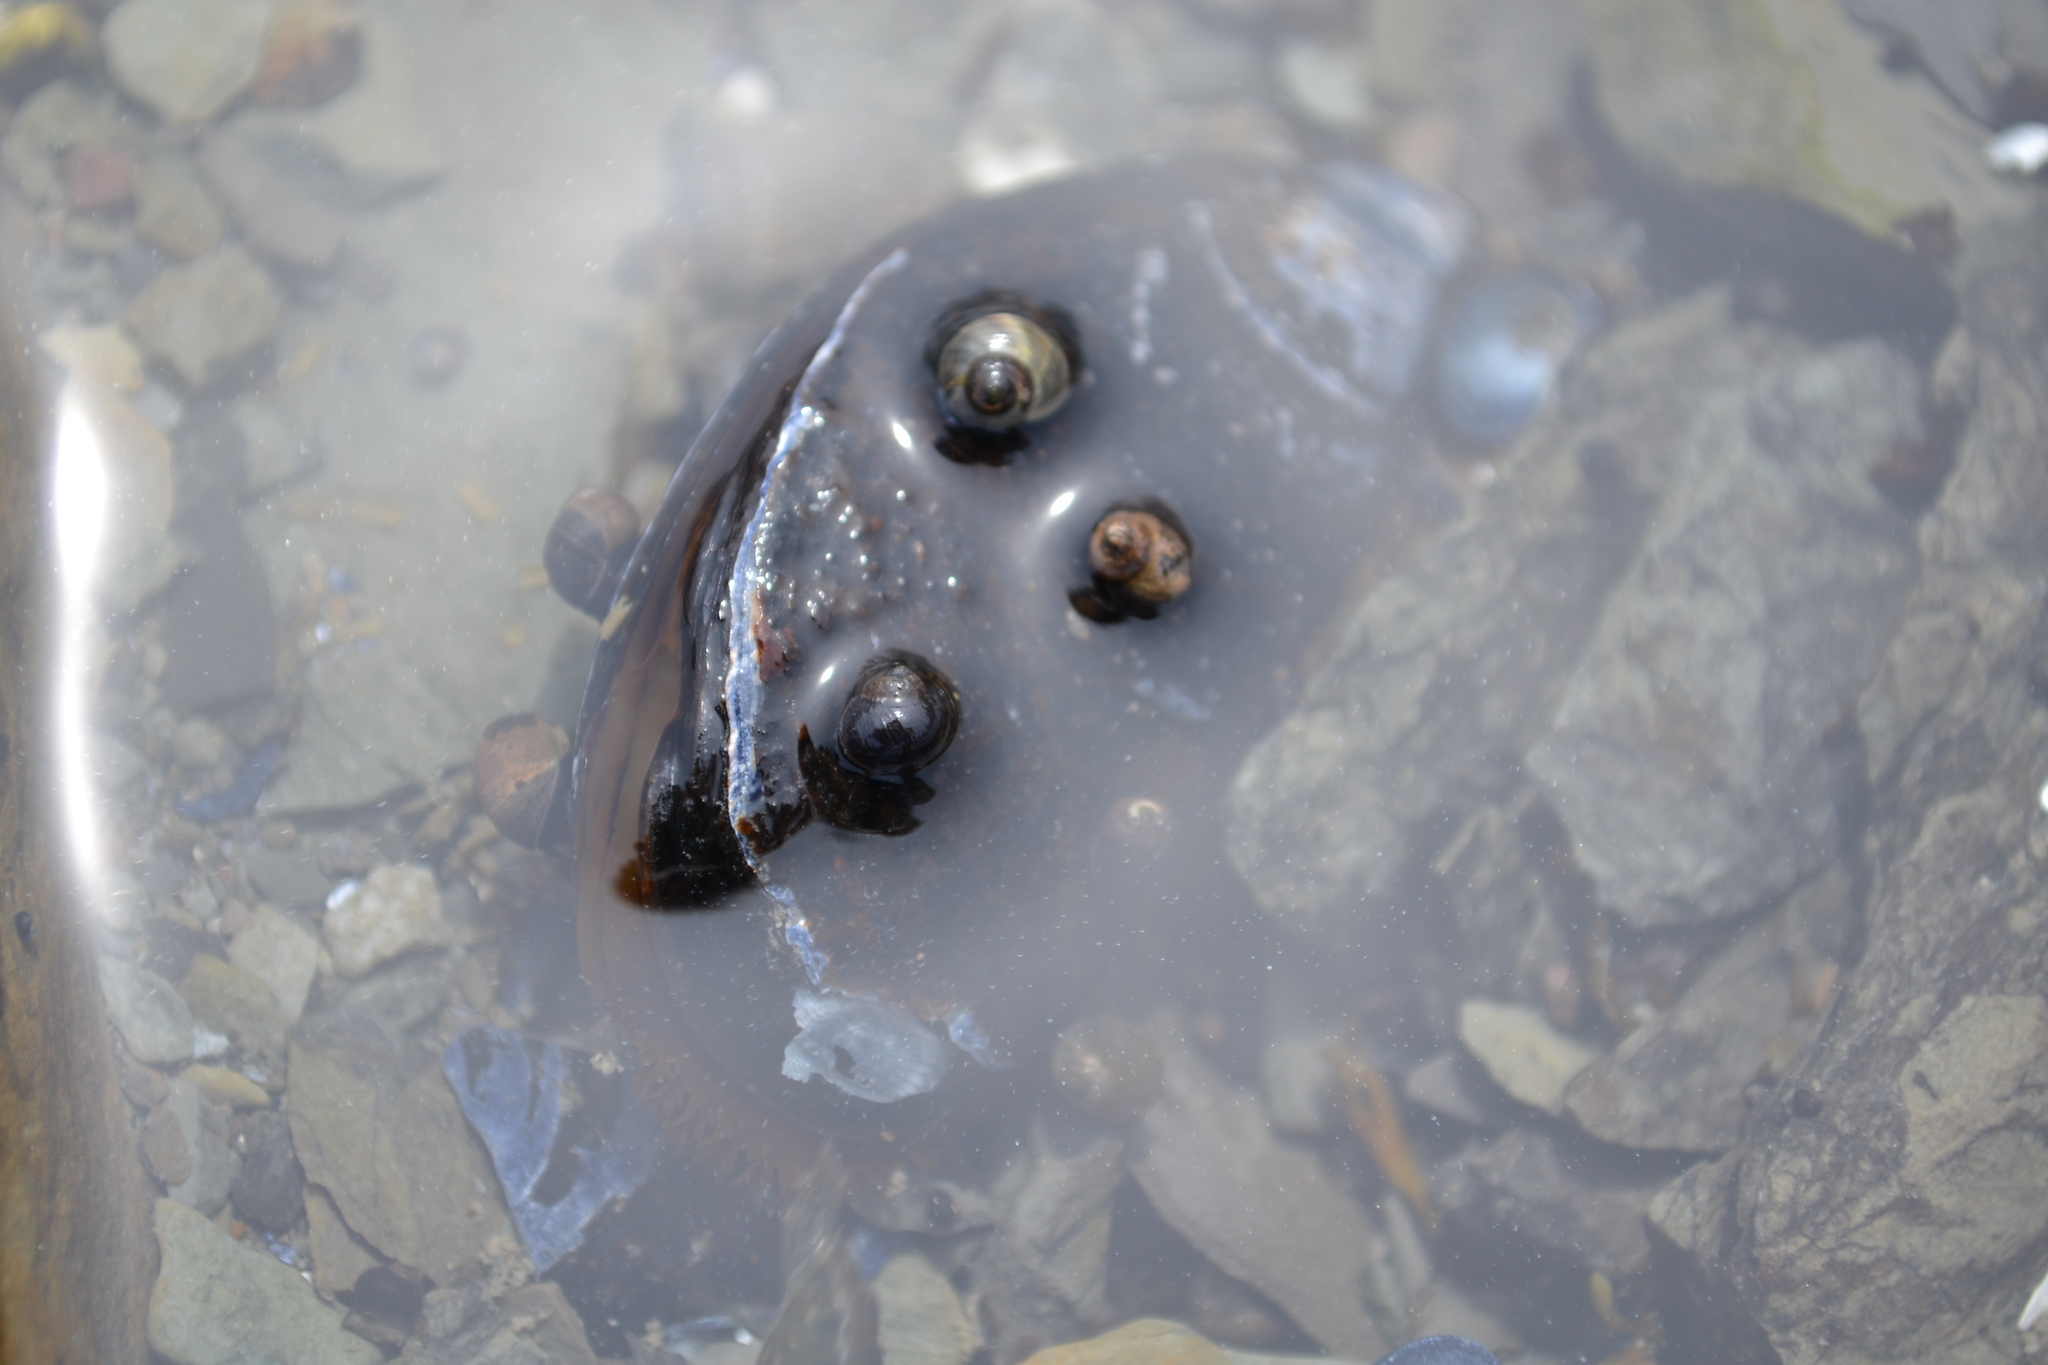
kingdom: Animalia
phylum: Mollusca
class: Bivalvia
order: Mytilida
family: Mytilidae
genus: Mytilus
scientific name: Mytilus
